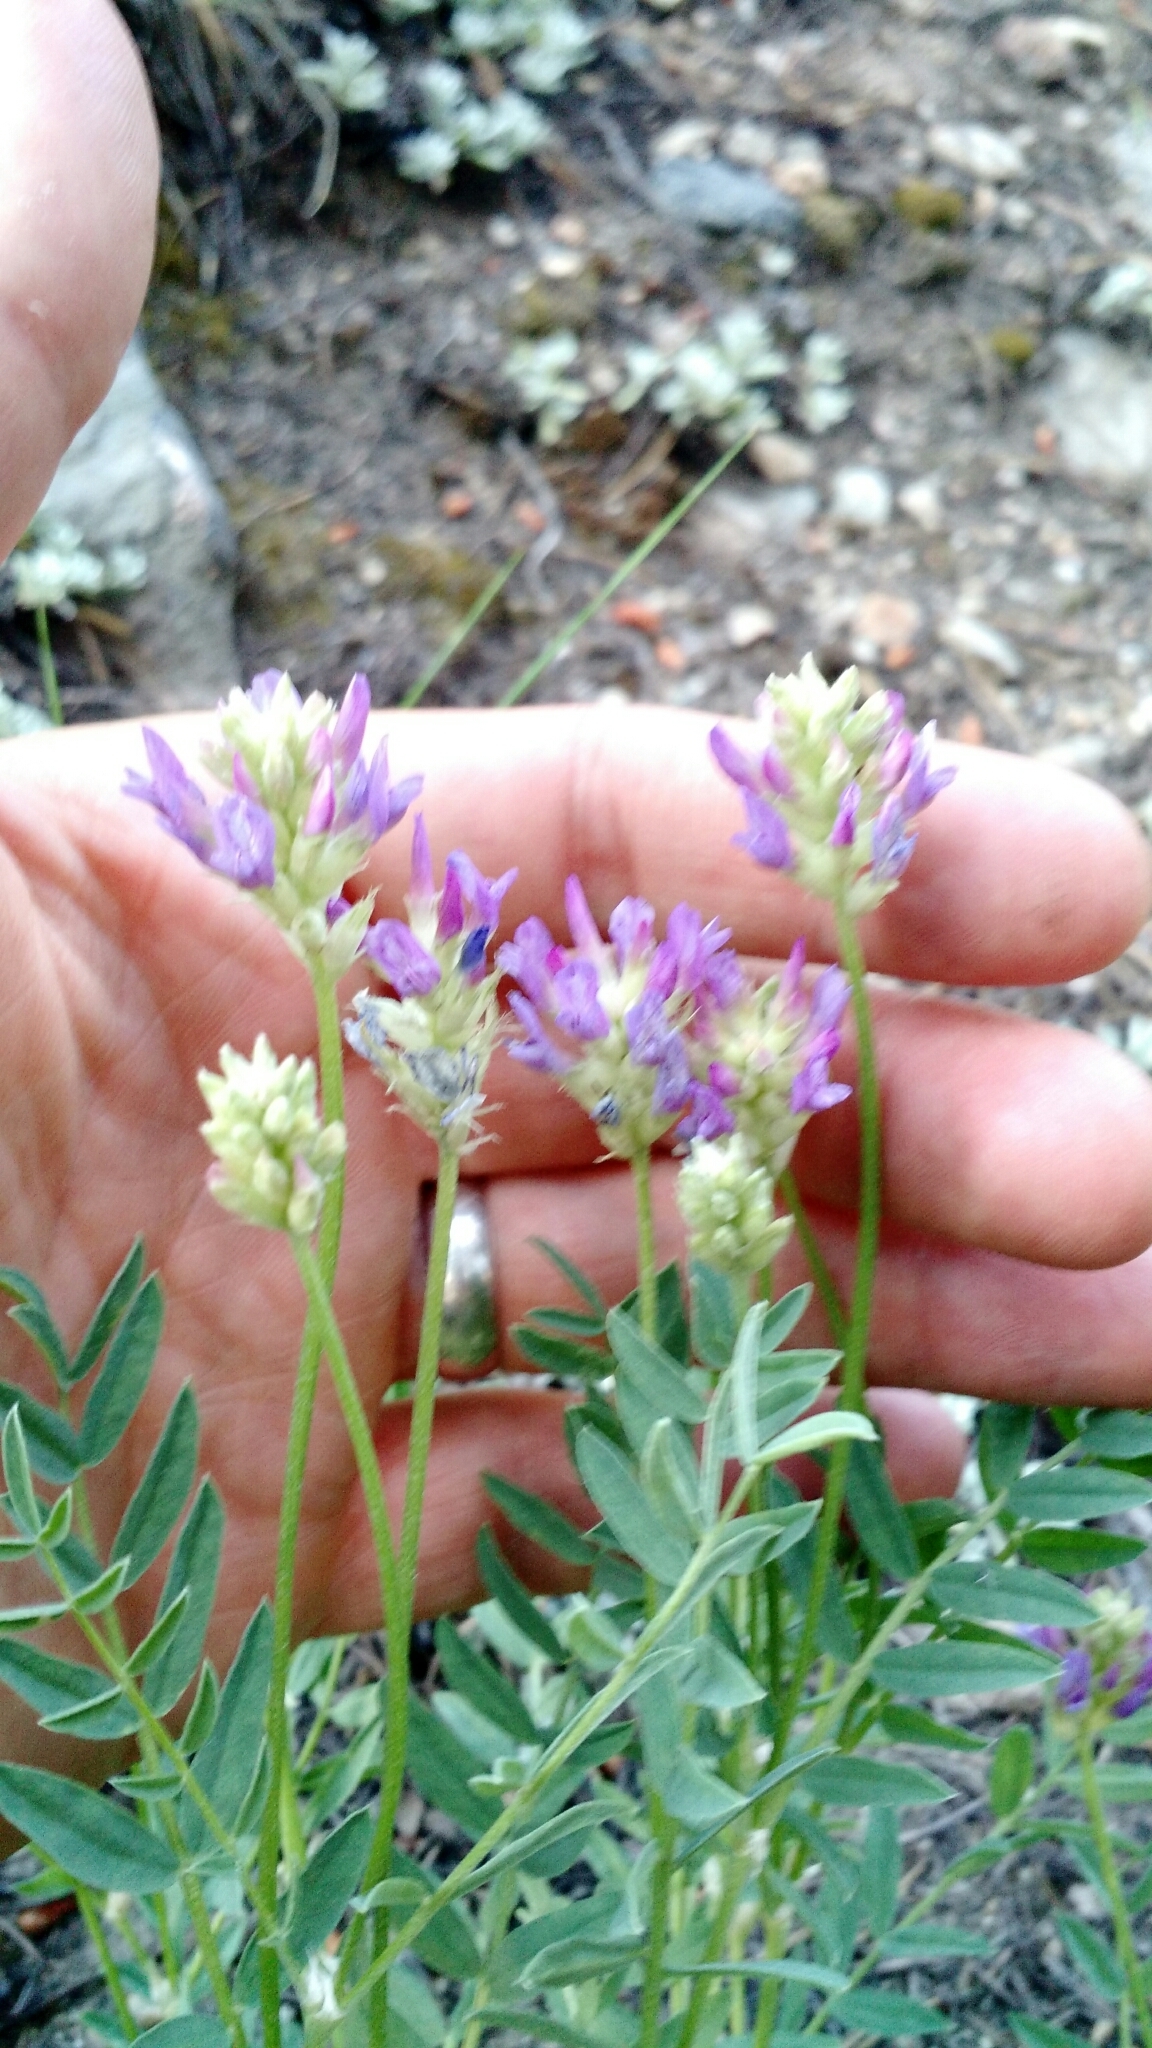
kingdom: Plantae
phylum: Tracheophyta
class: Magnoliopsida
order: Fabales
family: Fabaceae
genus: Astragalus
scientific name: Astragalus laxmannii
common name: Laxmann's milk-vetch
